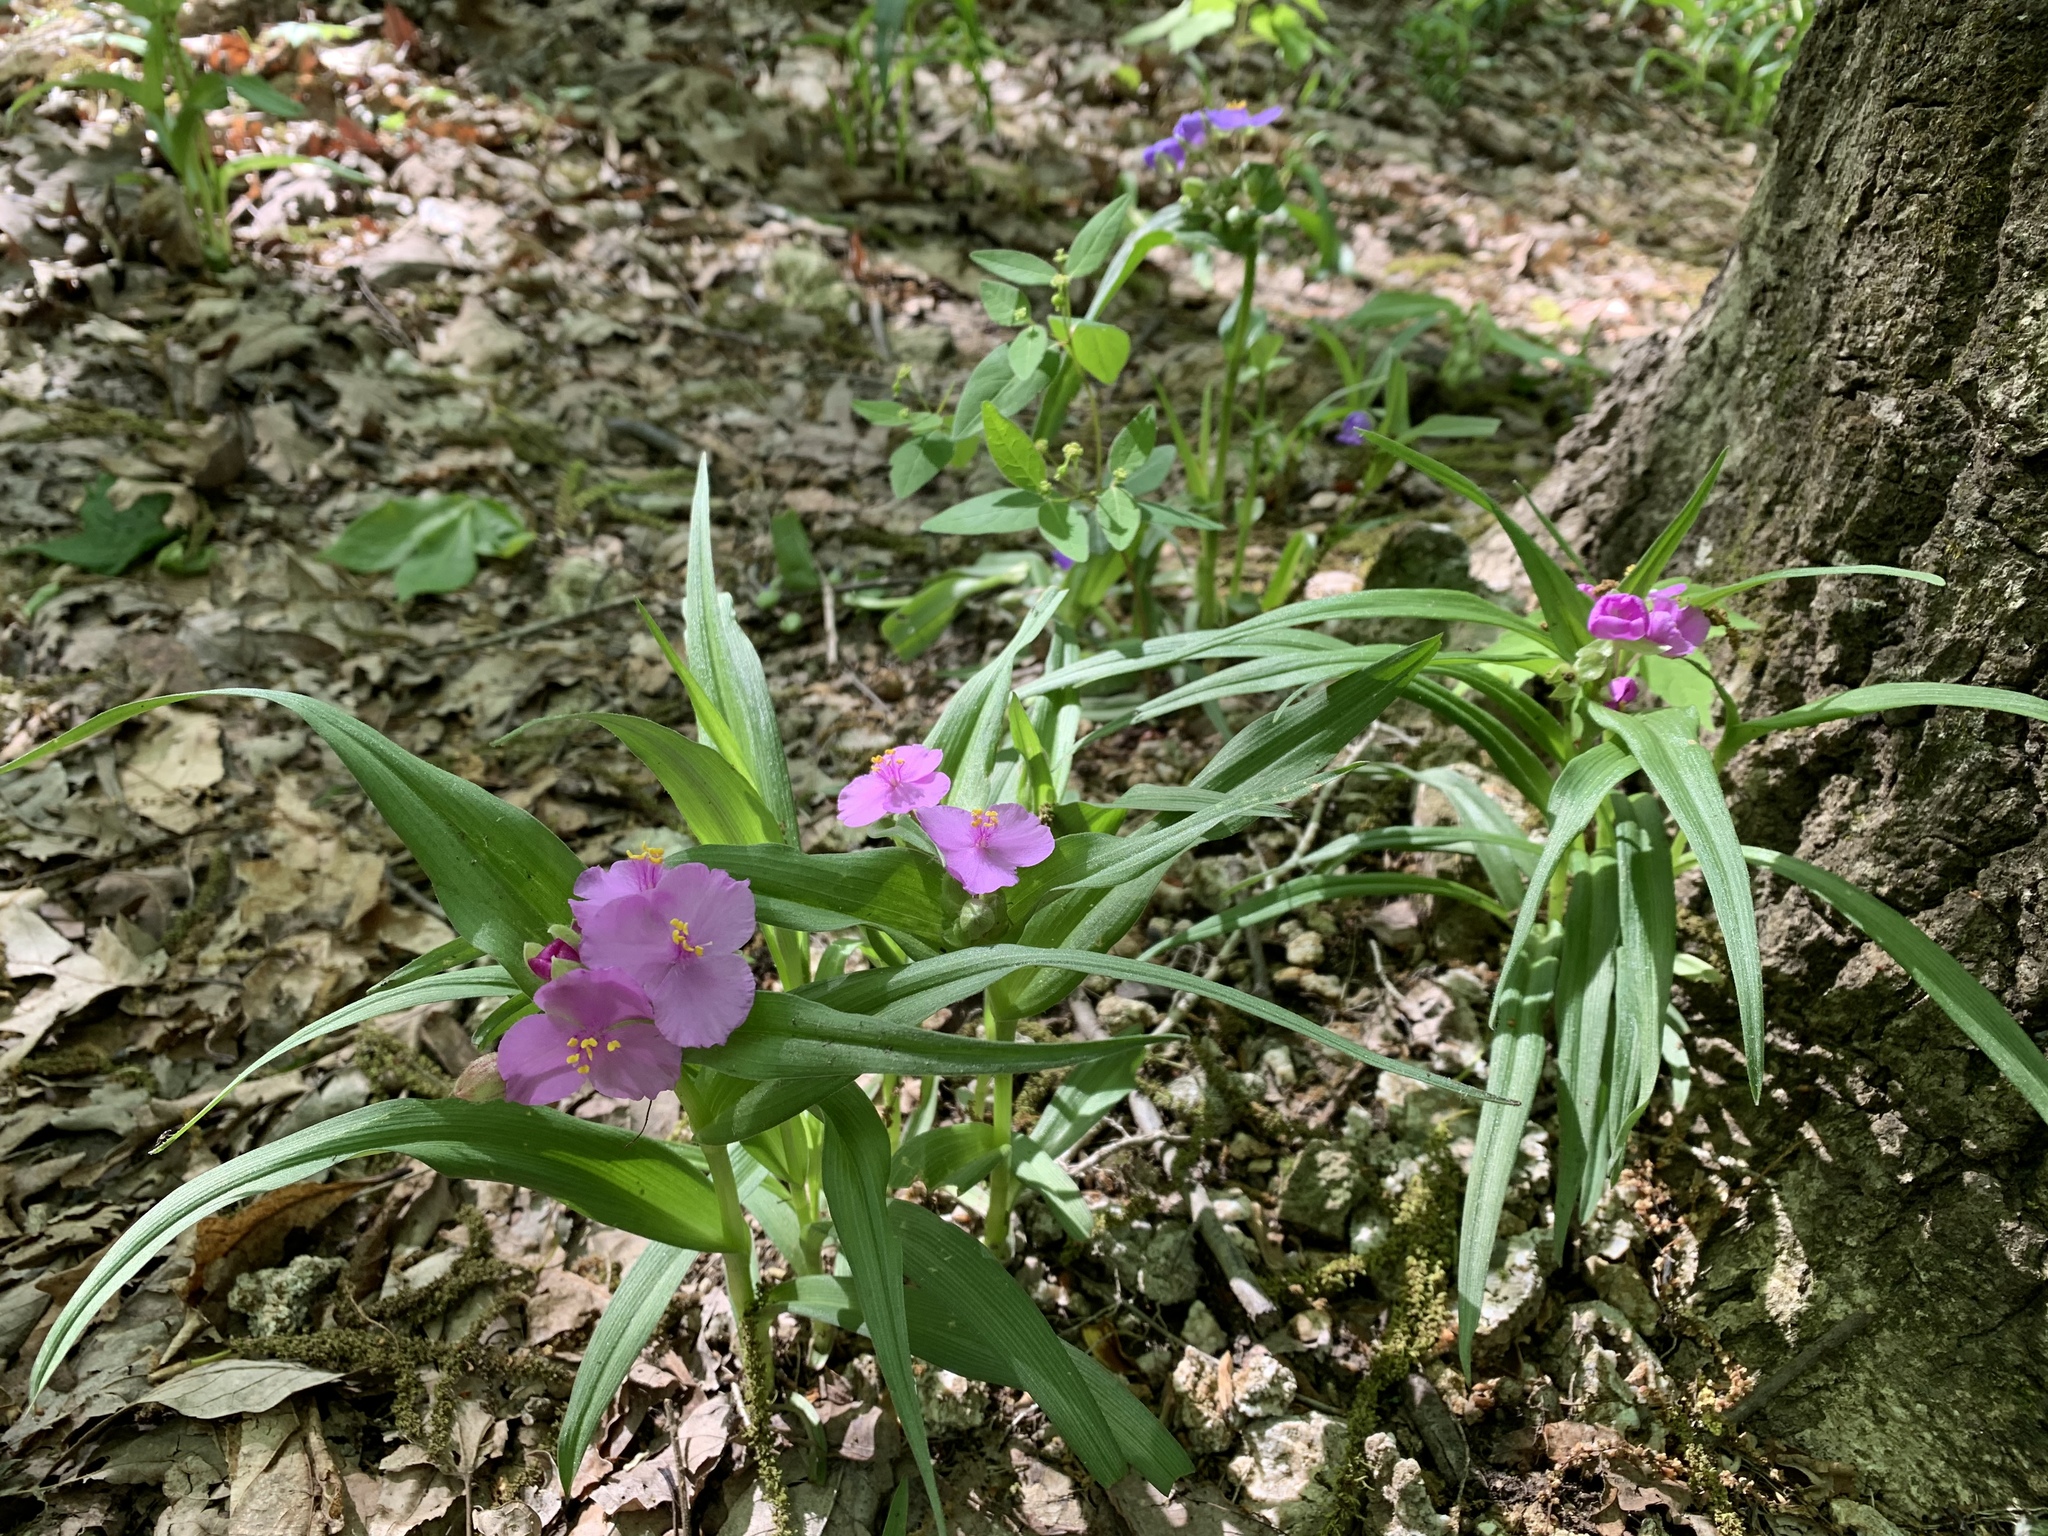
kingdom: Plantae
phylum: Tracheophyta
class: Liliopsida
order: Commelinales
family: Commelinaceae
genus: Tradescantia
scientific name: Tradescantia virginiana
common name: Spiderwort
